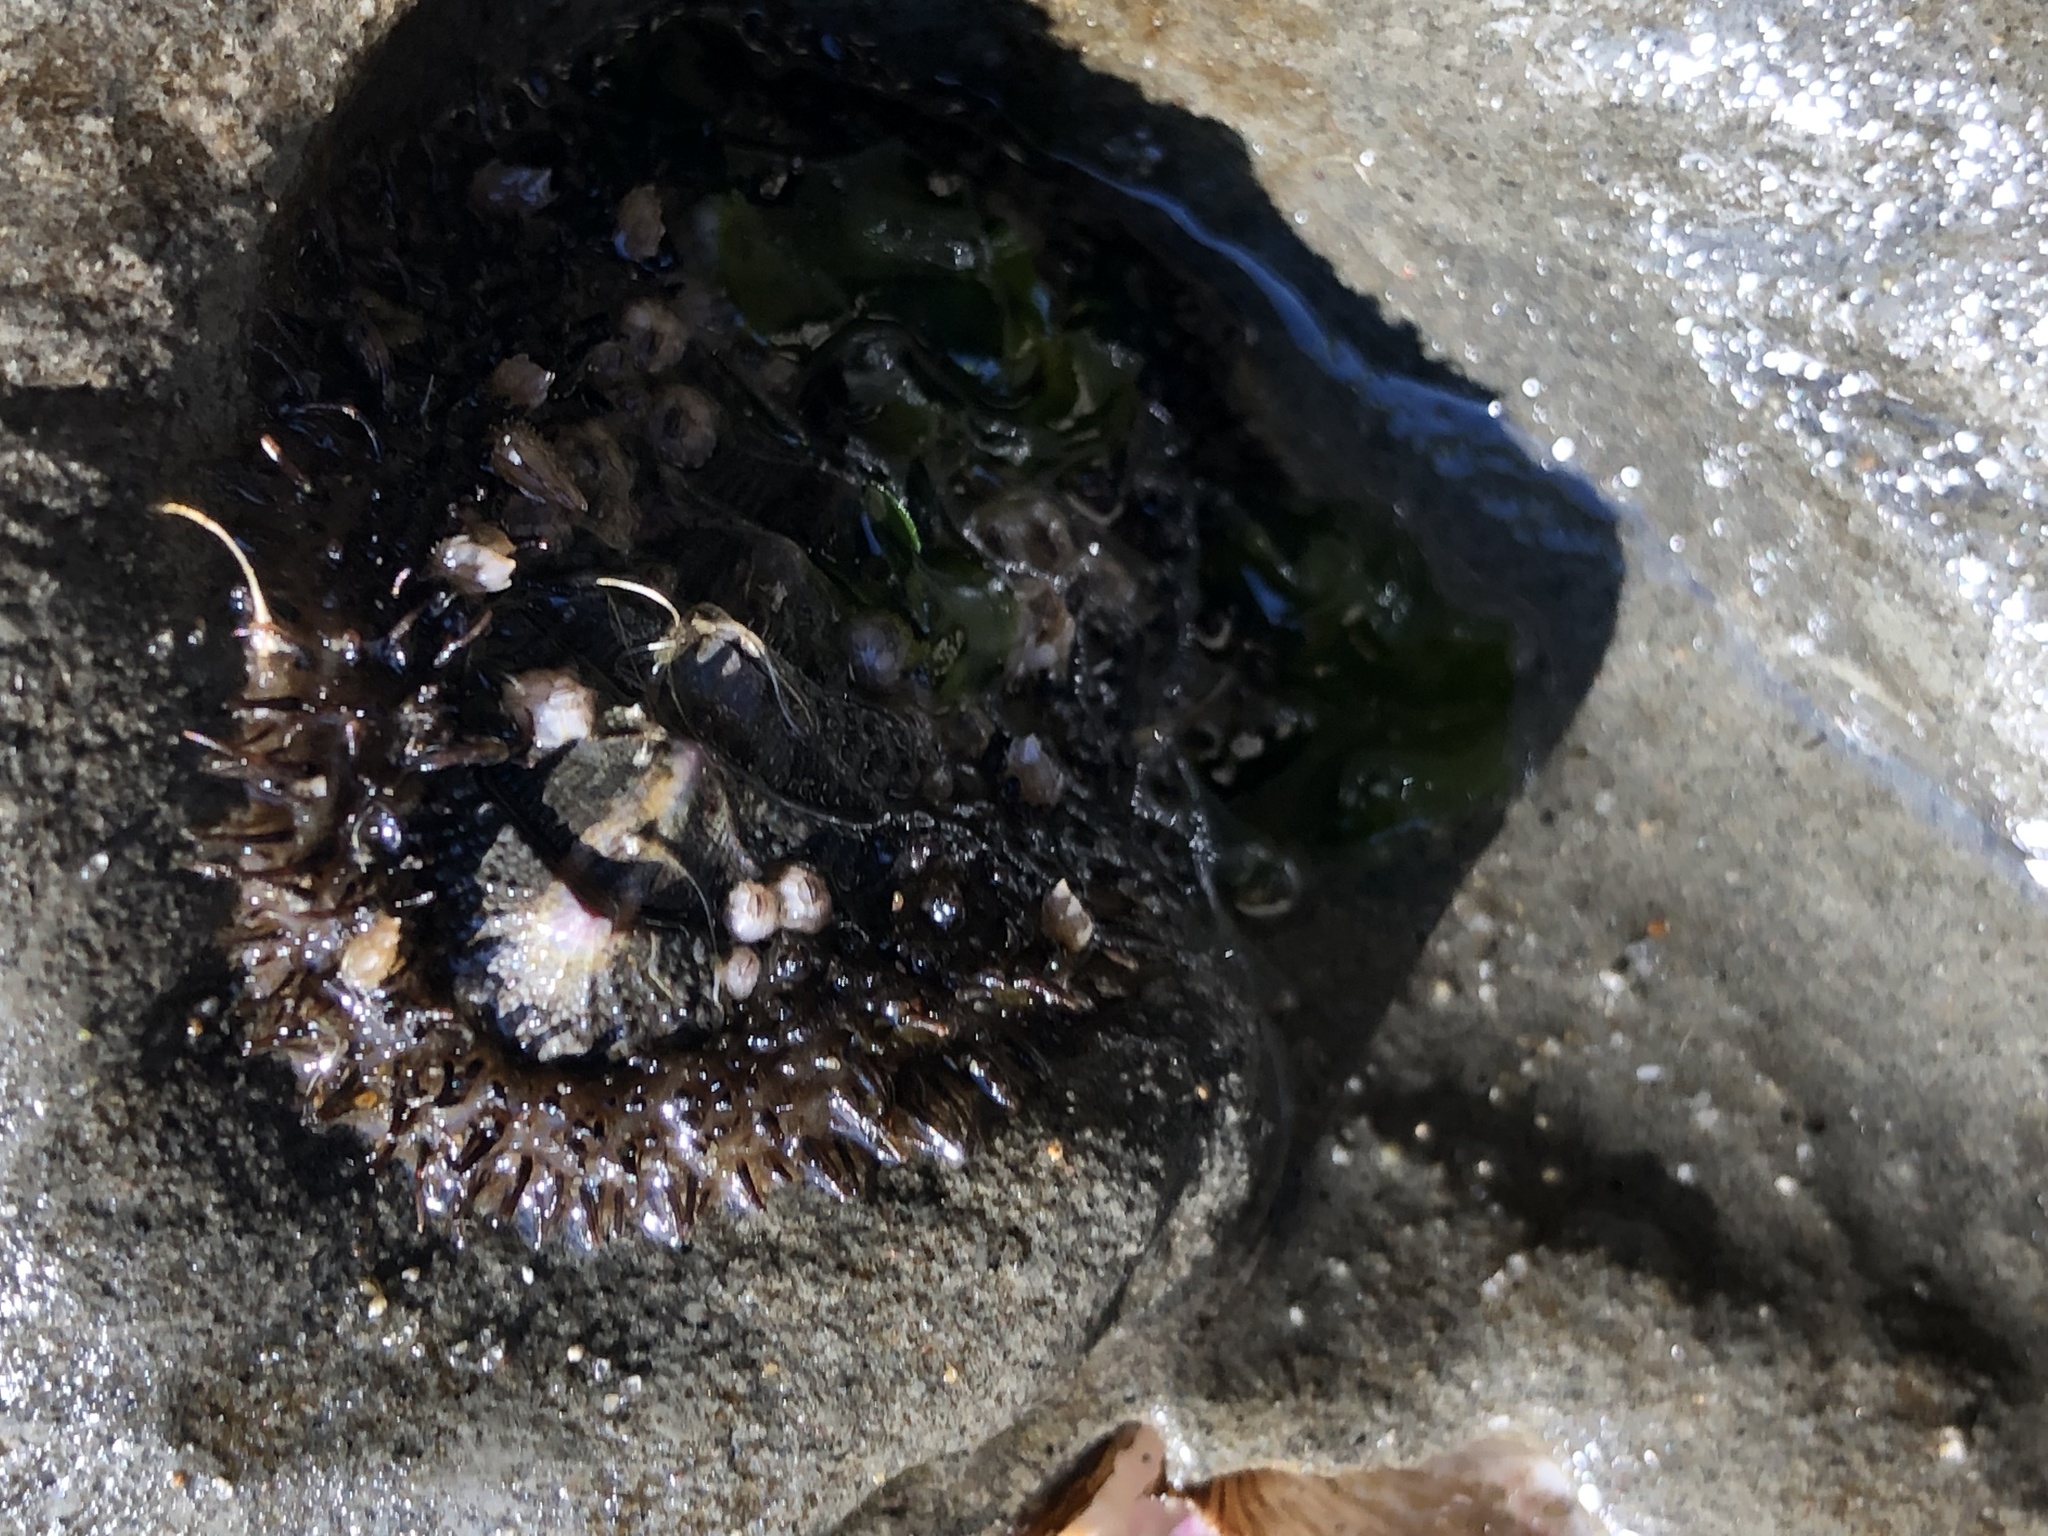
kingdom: Animalia
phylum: Mollusca
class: Polyplacophora
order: Chitonida
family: Mopaliidae
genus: Mopalia
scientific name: Mopalia muscosa
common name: Mossy chiton
